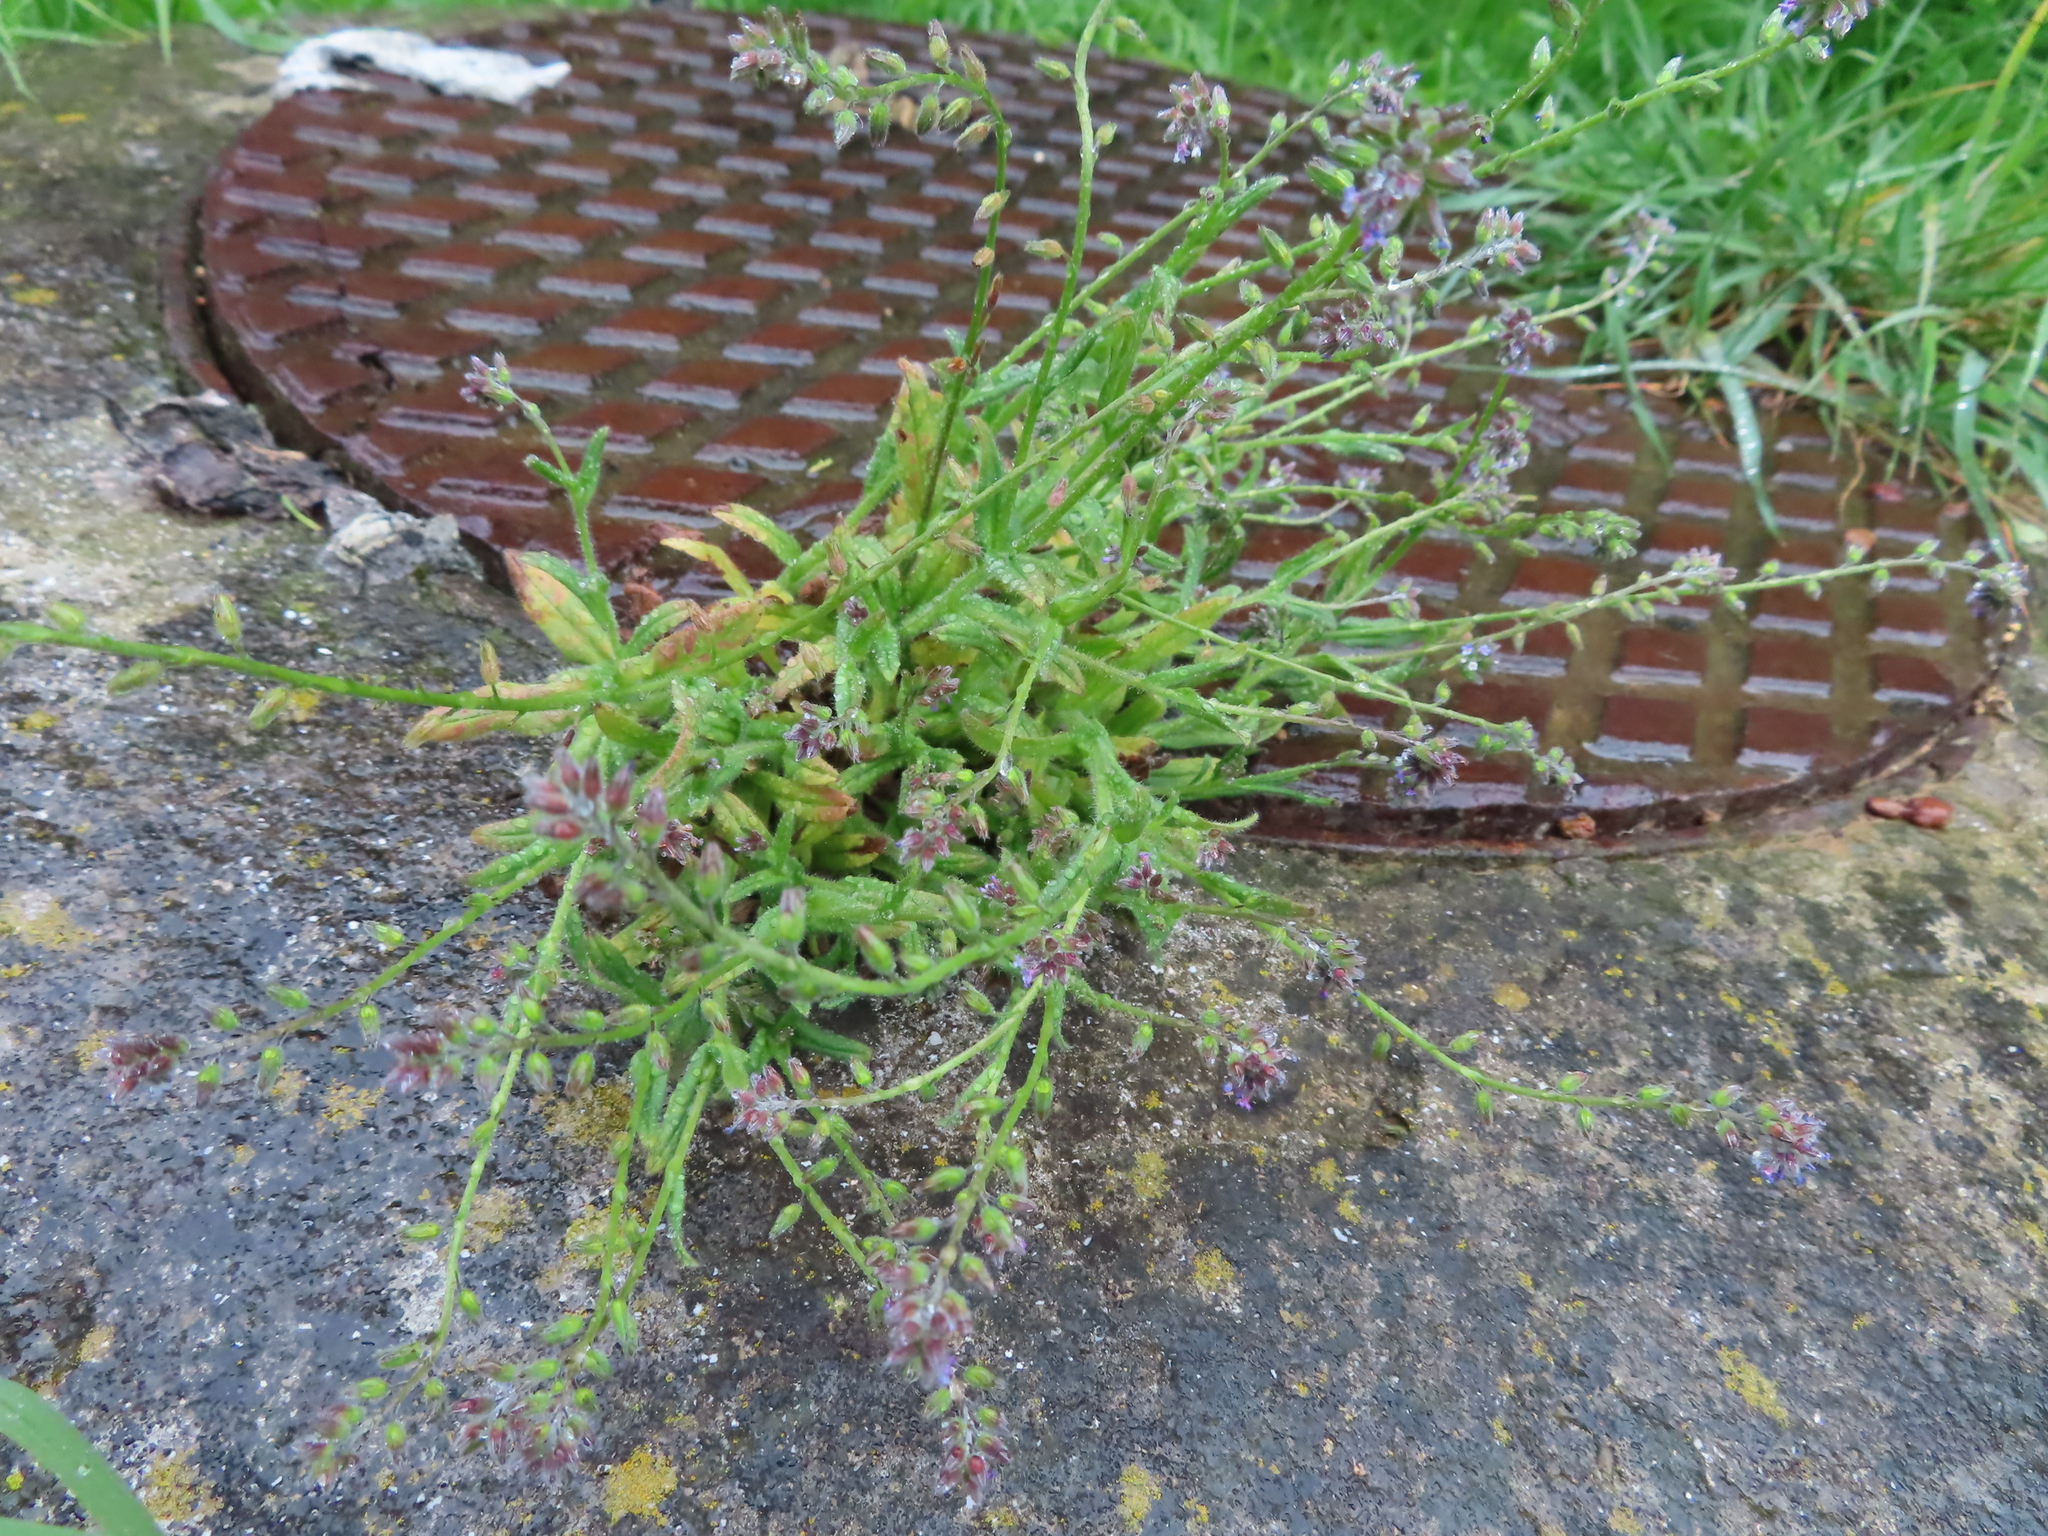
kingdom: Plantae
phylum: Tracheophyta
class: Magnoliopsida
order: Boraginales
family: Boraginaceae
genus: Myosotis
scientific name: Myosotis discolor
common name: Changing forget-me-not
